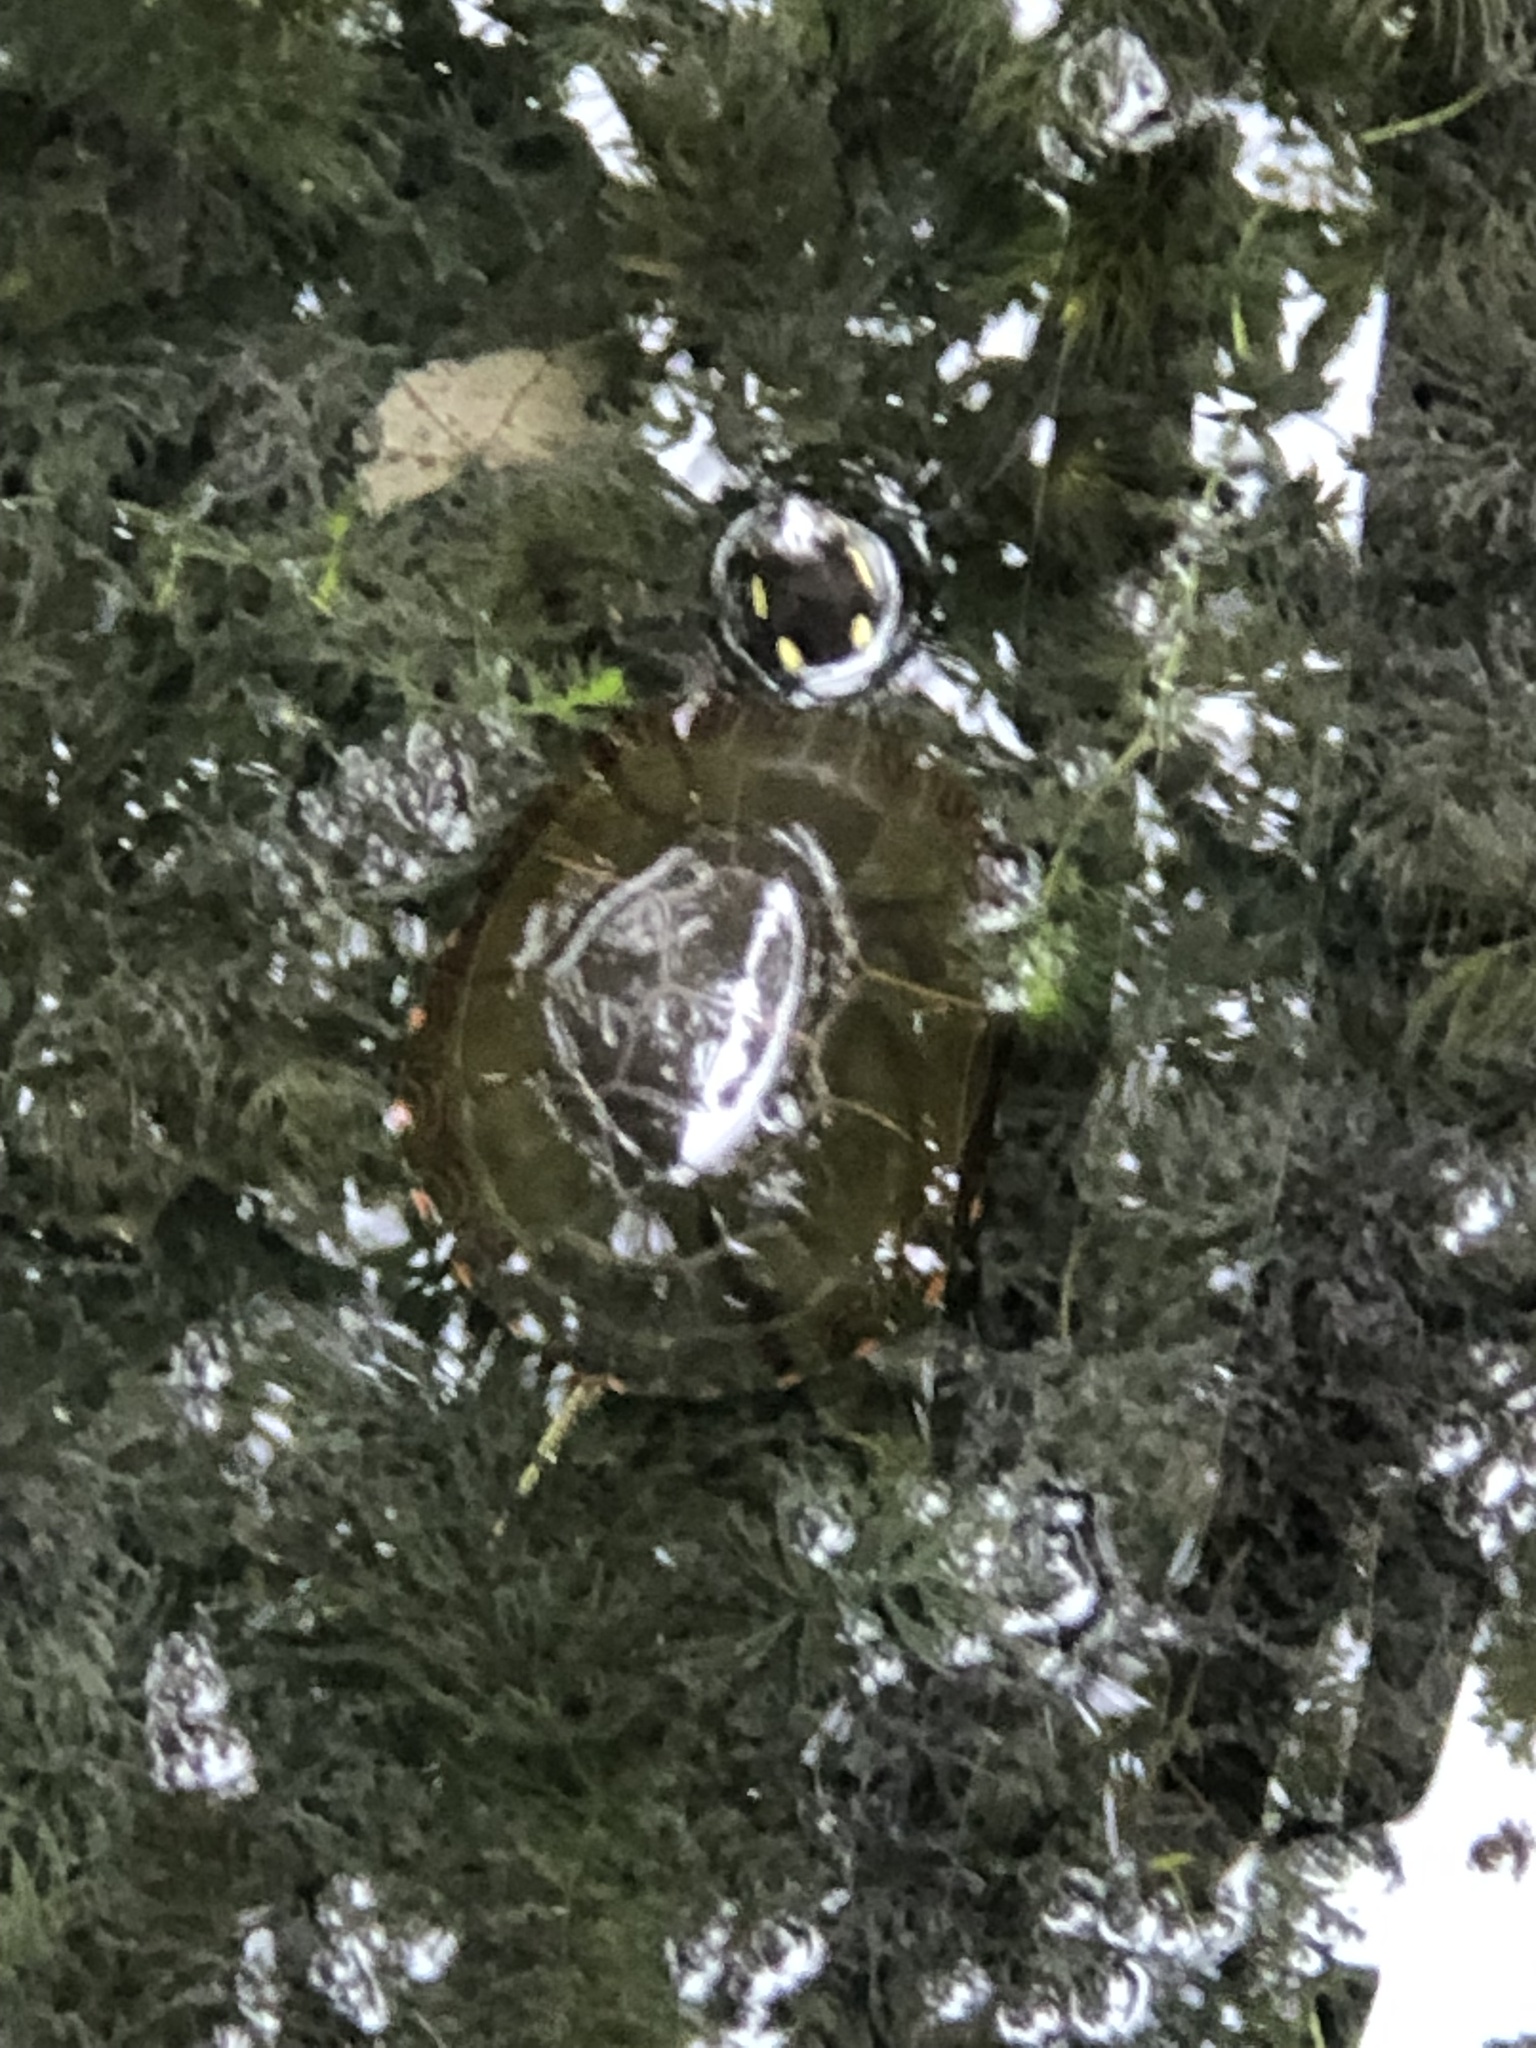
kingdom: Animalia
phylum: Chordata
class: Testudines
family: Emydidae
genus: Chrysemys
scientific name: Chrysemys picta
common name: Painted turtle
